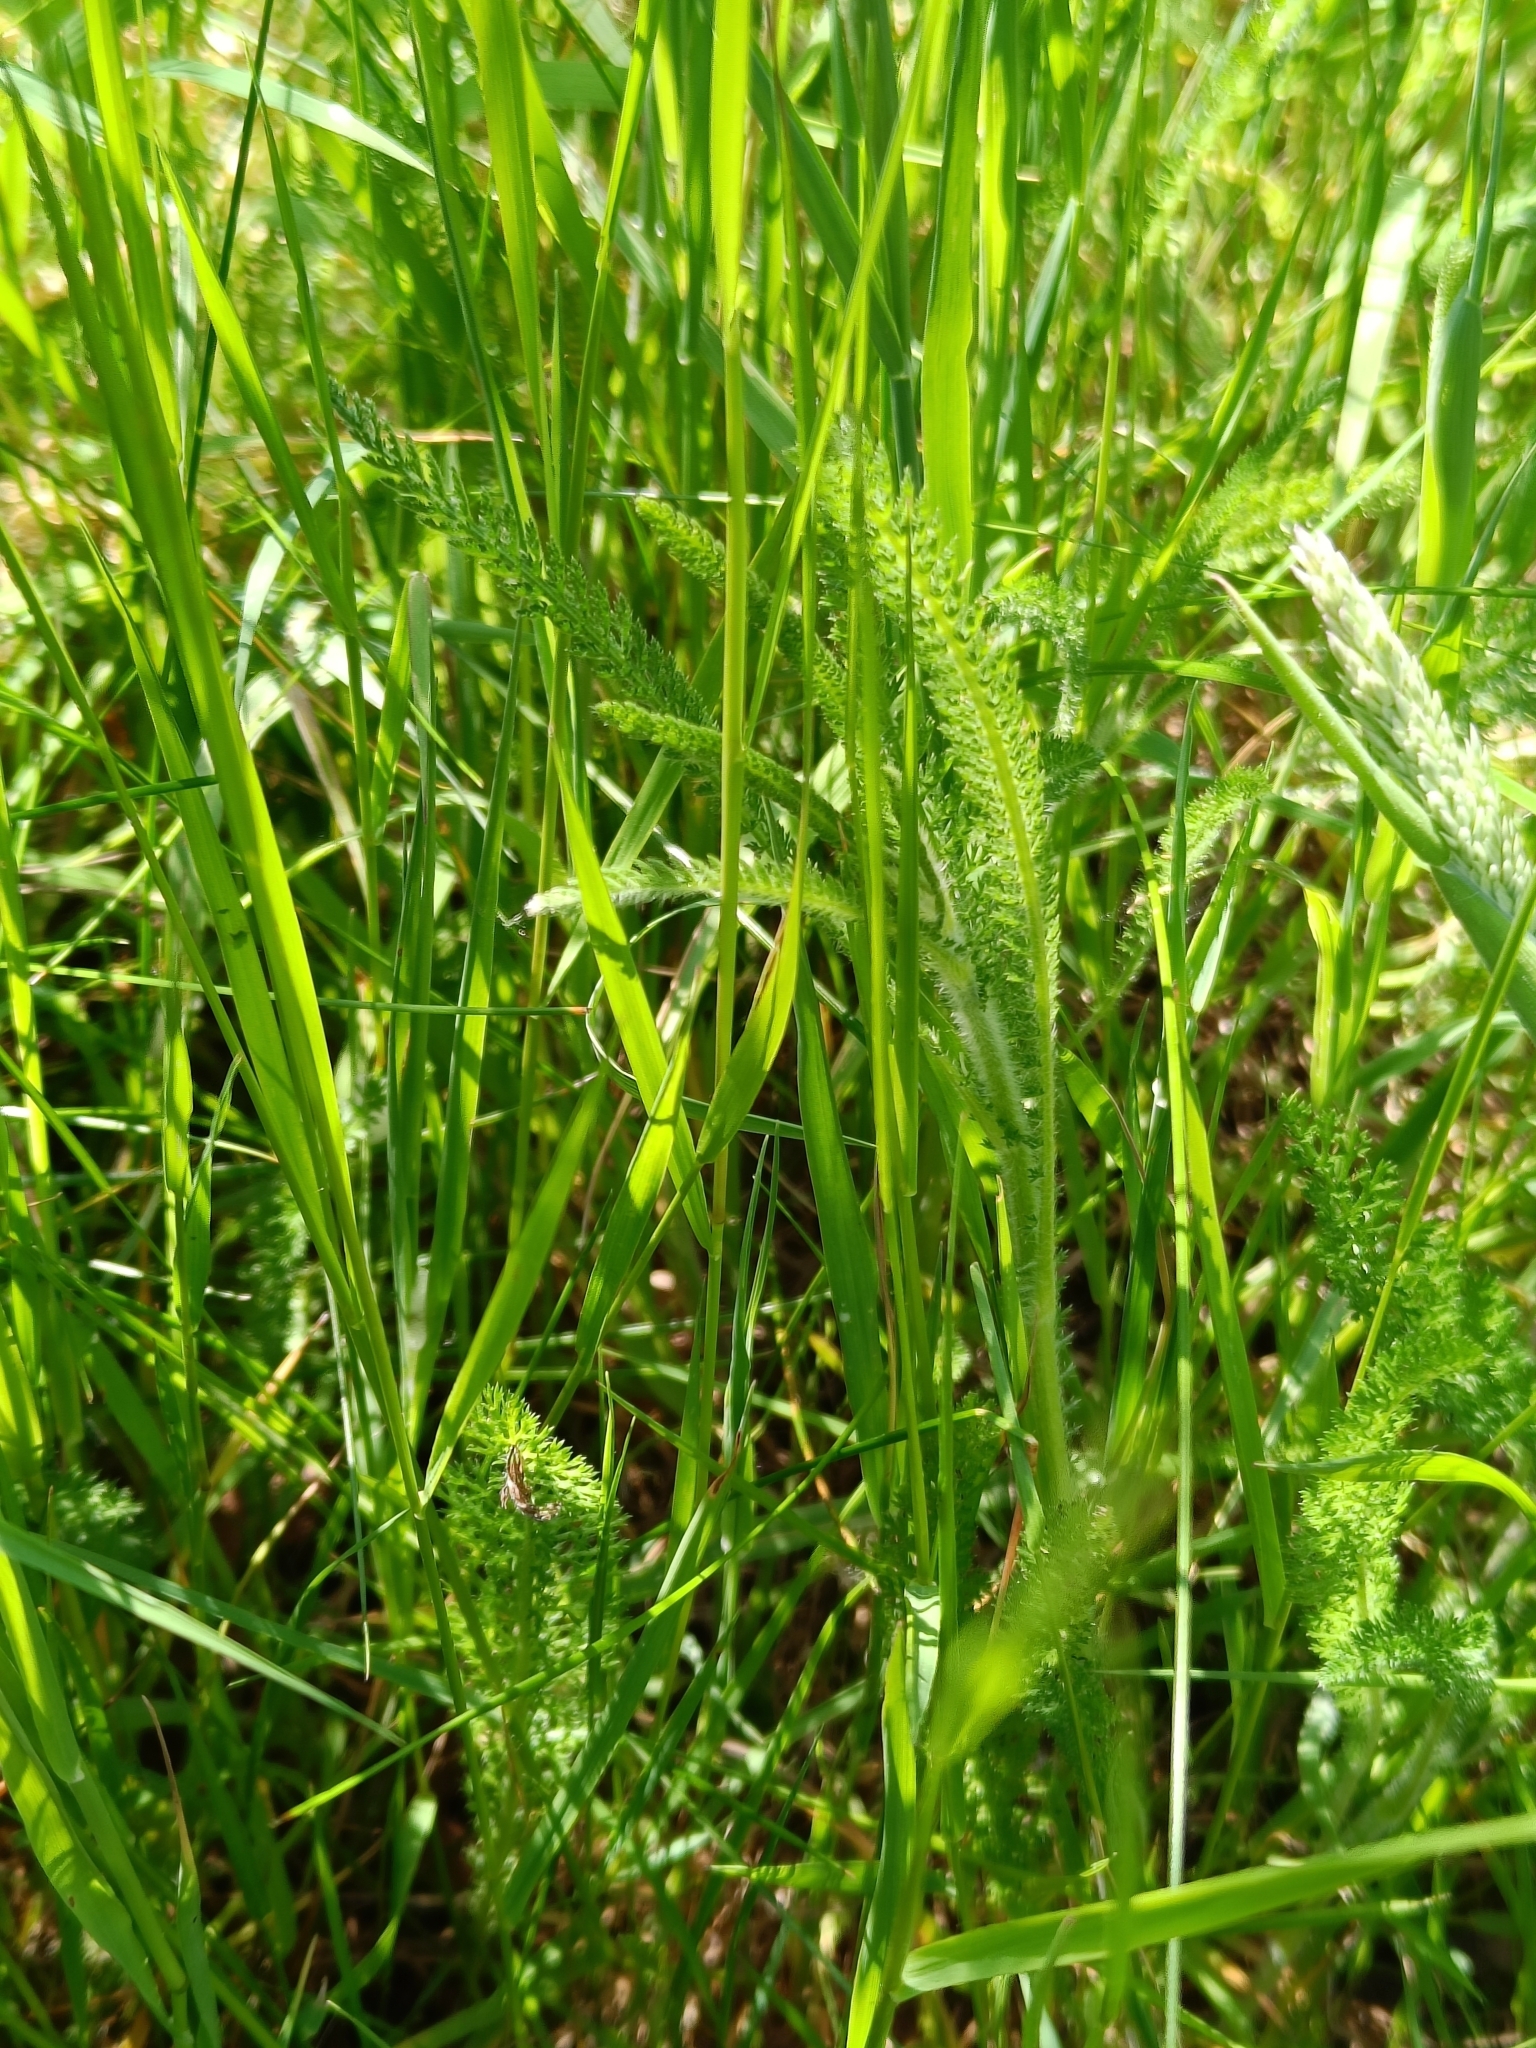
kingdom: Plantae
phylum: Tracheophyta
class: Magnoliopsida
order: Asterales
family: Asteraceae
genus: Achillea
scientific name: Achillea millefolium
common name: Yarrow
